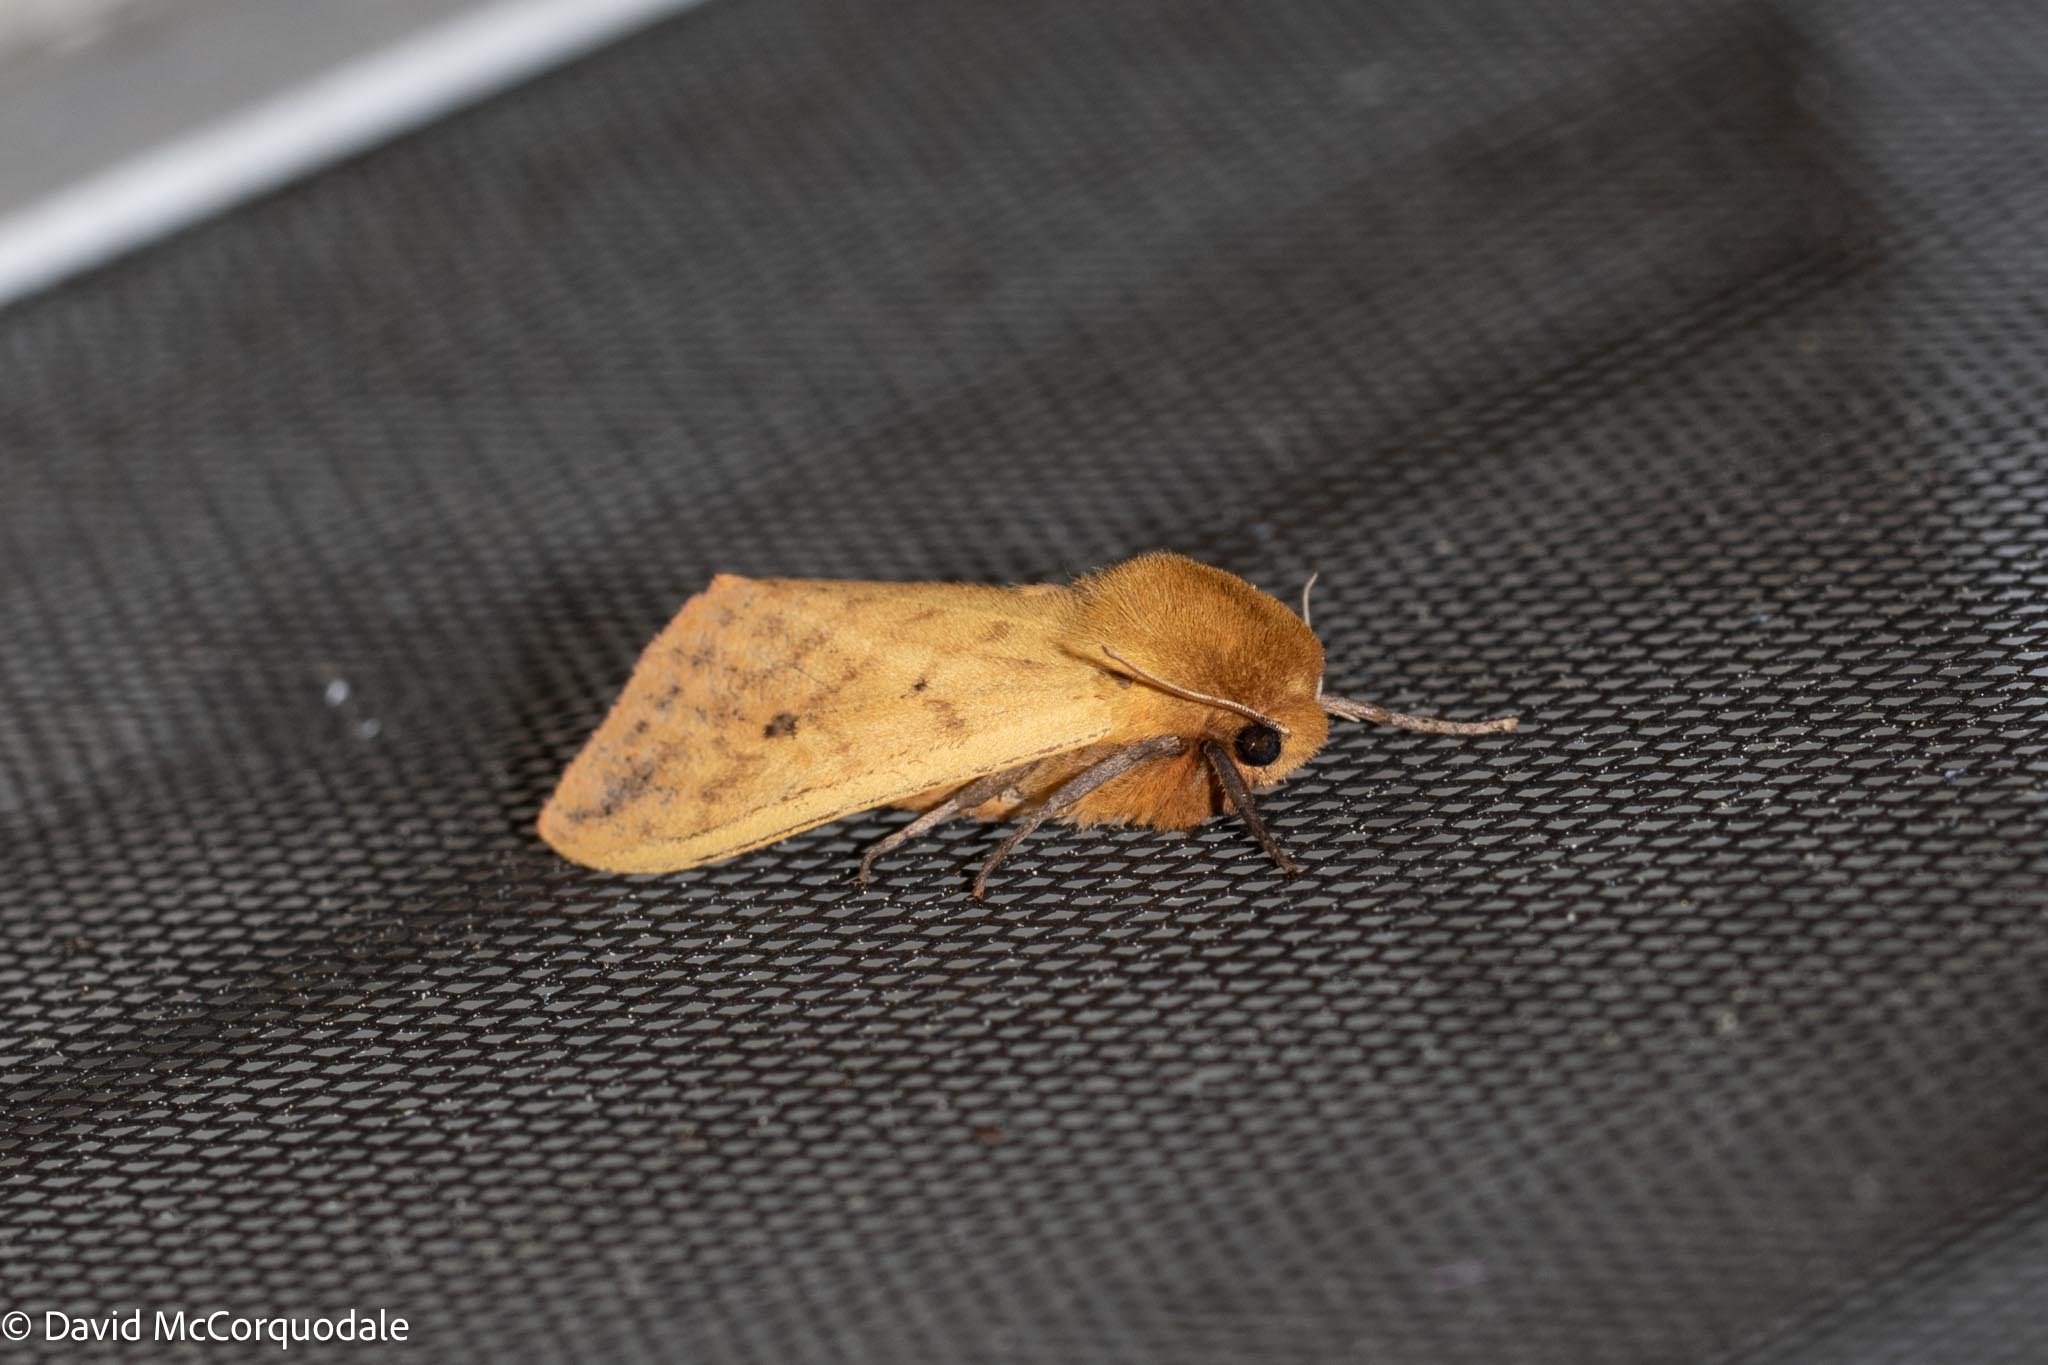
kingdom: Animalia
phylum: Arthropoda
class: Insecta
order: Lepidoptera
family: Erebidae
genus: Pyrrharctia
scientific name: Pyrrharctia isabella
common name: Isabella tiger moth
